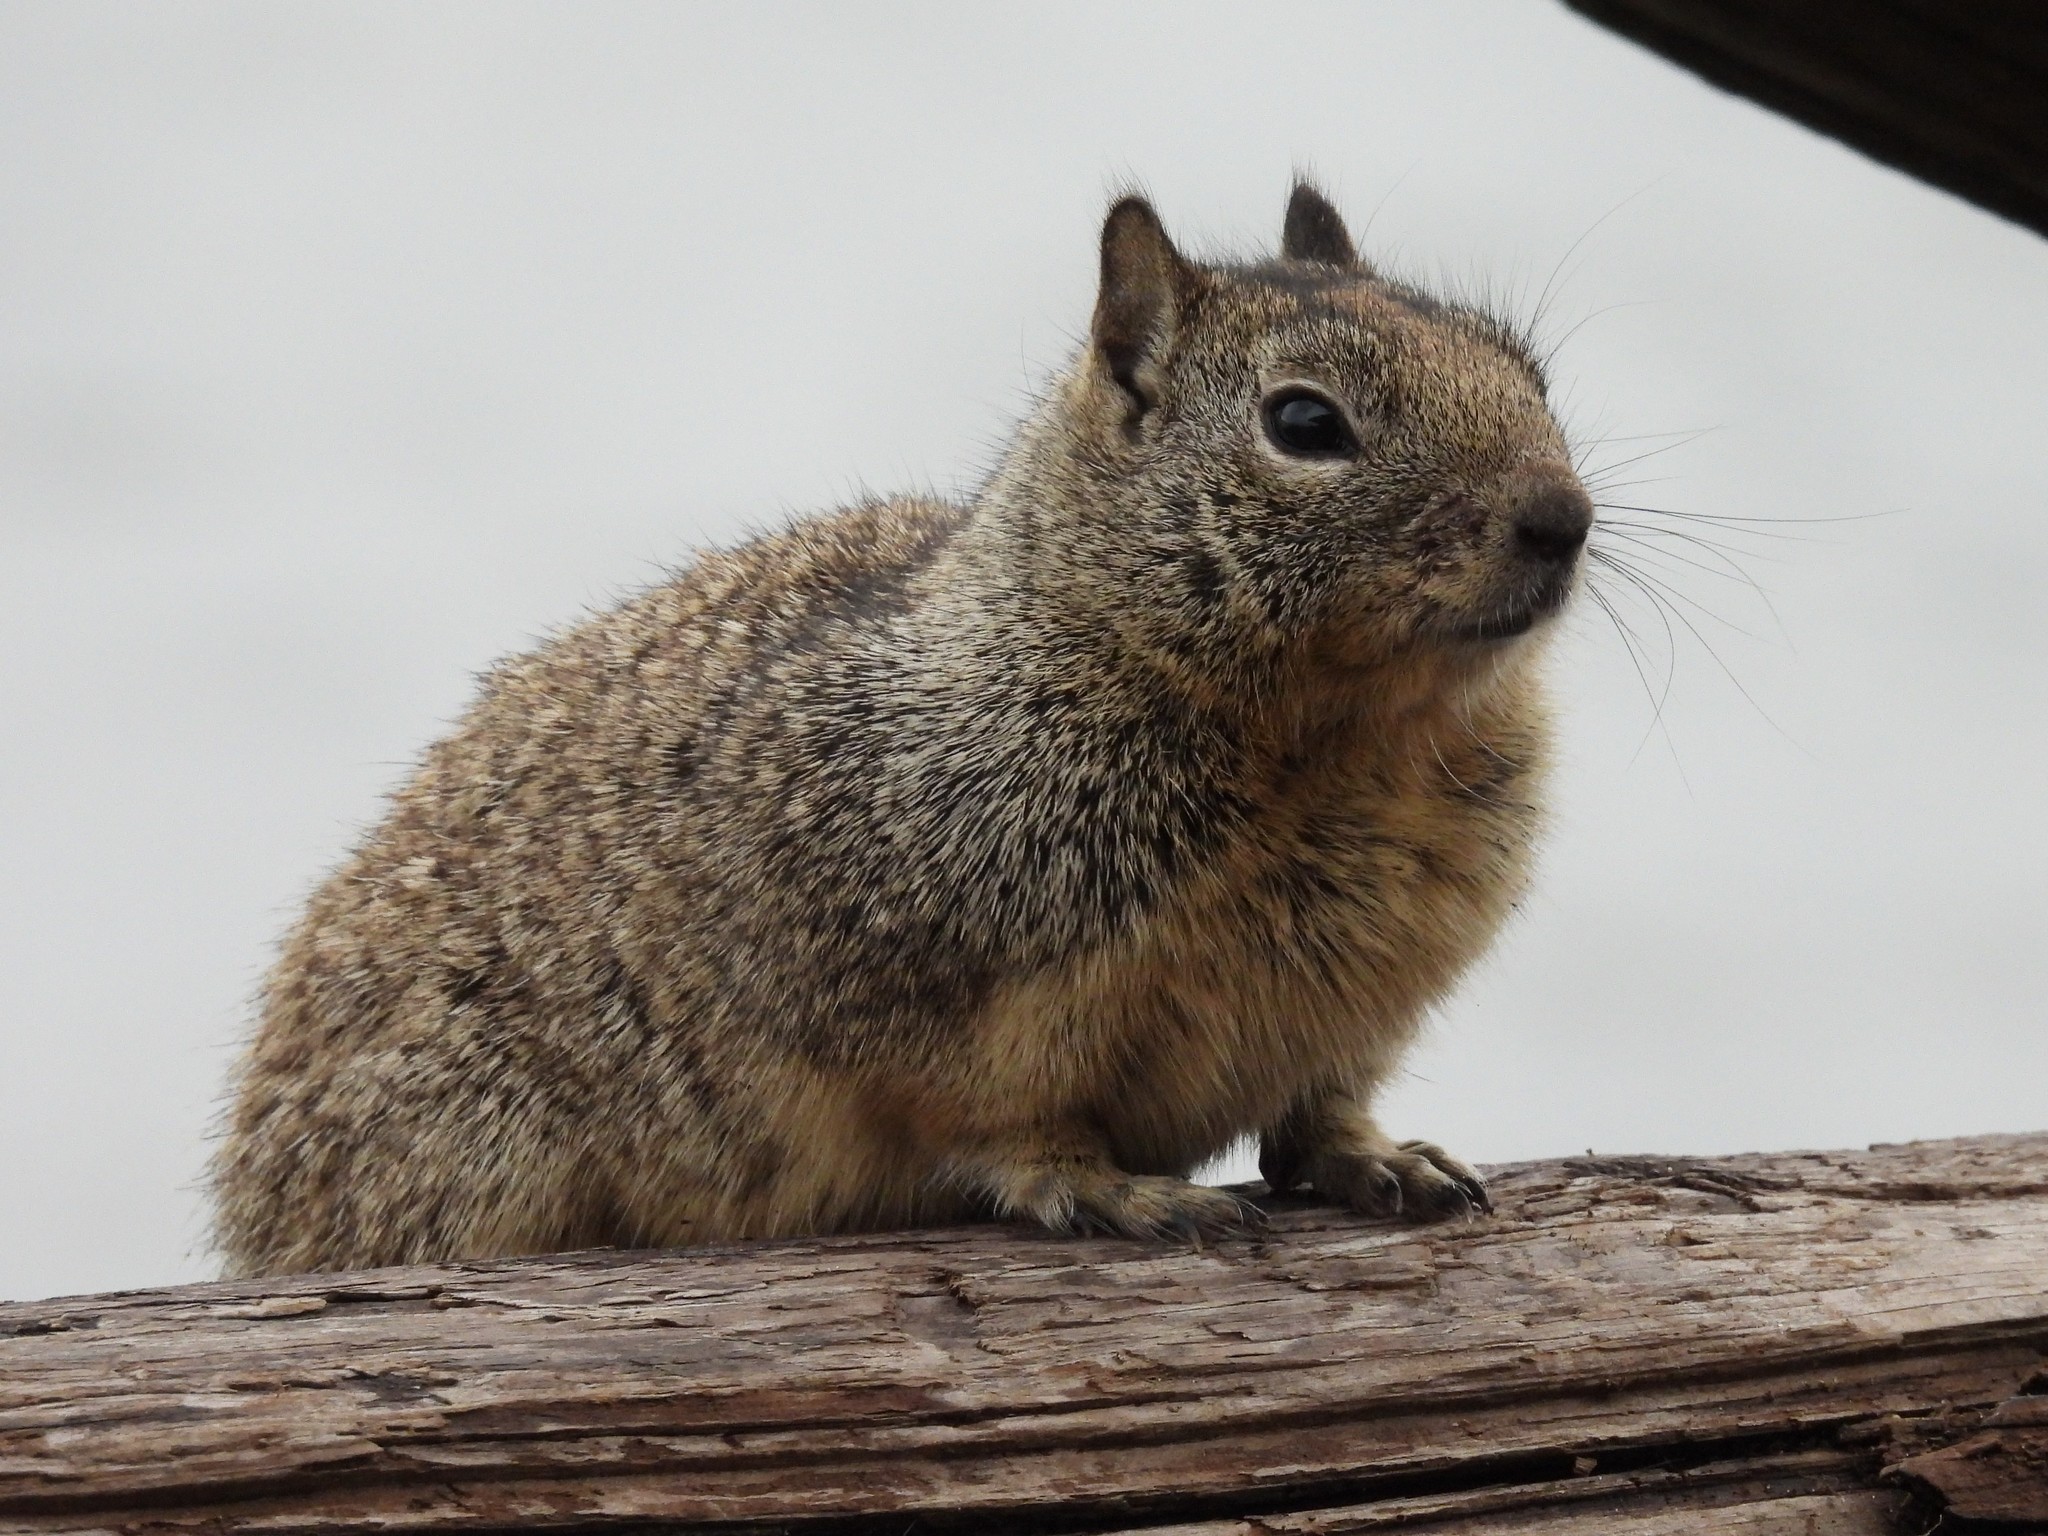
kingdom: Animalia
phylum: Chordata
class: Mammalia
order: Rodentia
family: Sciuridae
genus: Otospermophilus
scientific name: Otospermophilus beecheyi
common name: California ground squirrel
